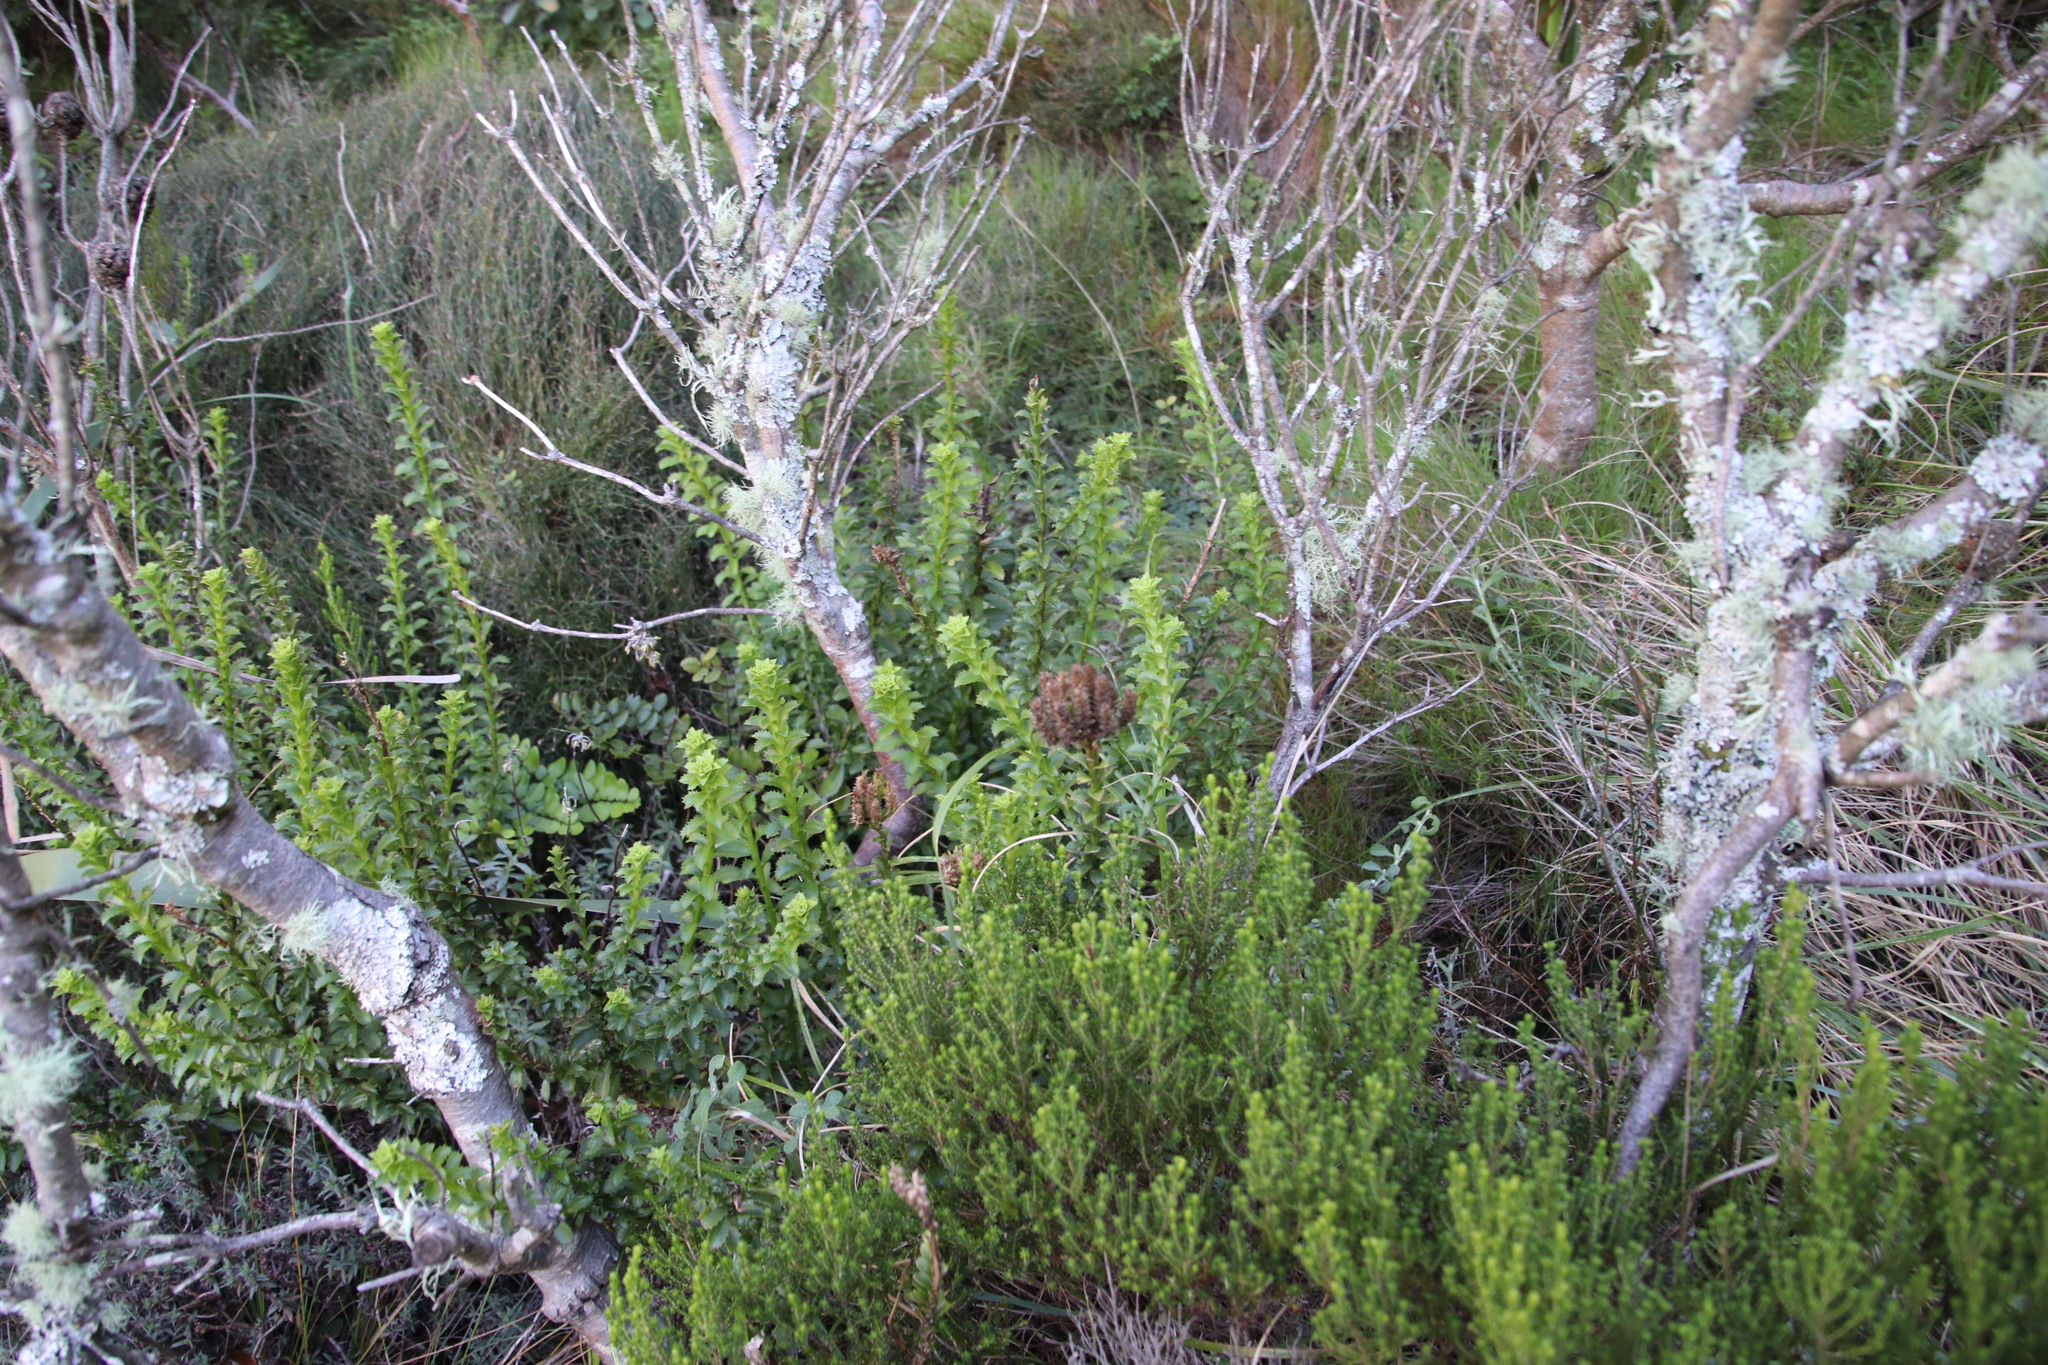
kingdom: Plantae
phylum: Tracheophyta
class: Magnoliopsida
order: Lamiales
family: Scrophulariaceae
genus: Pseudoselago
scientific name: Pseudoselago serrata
